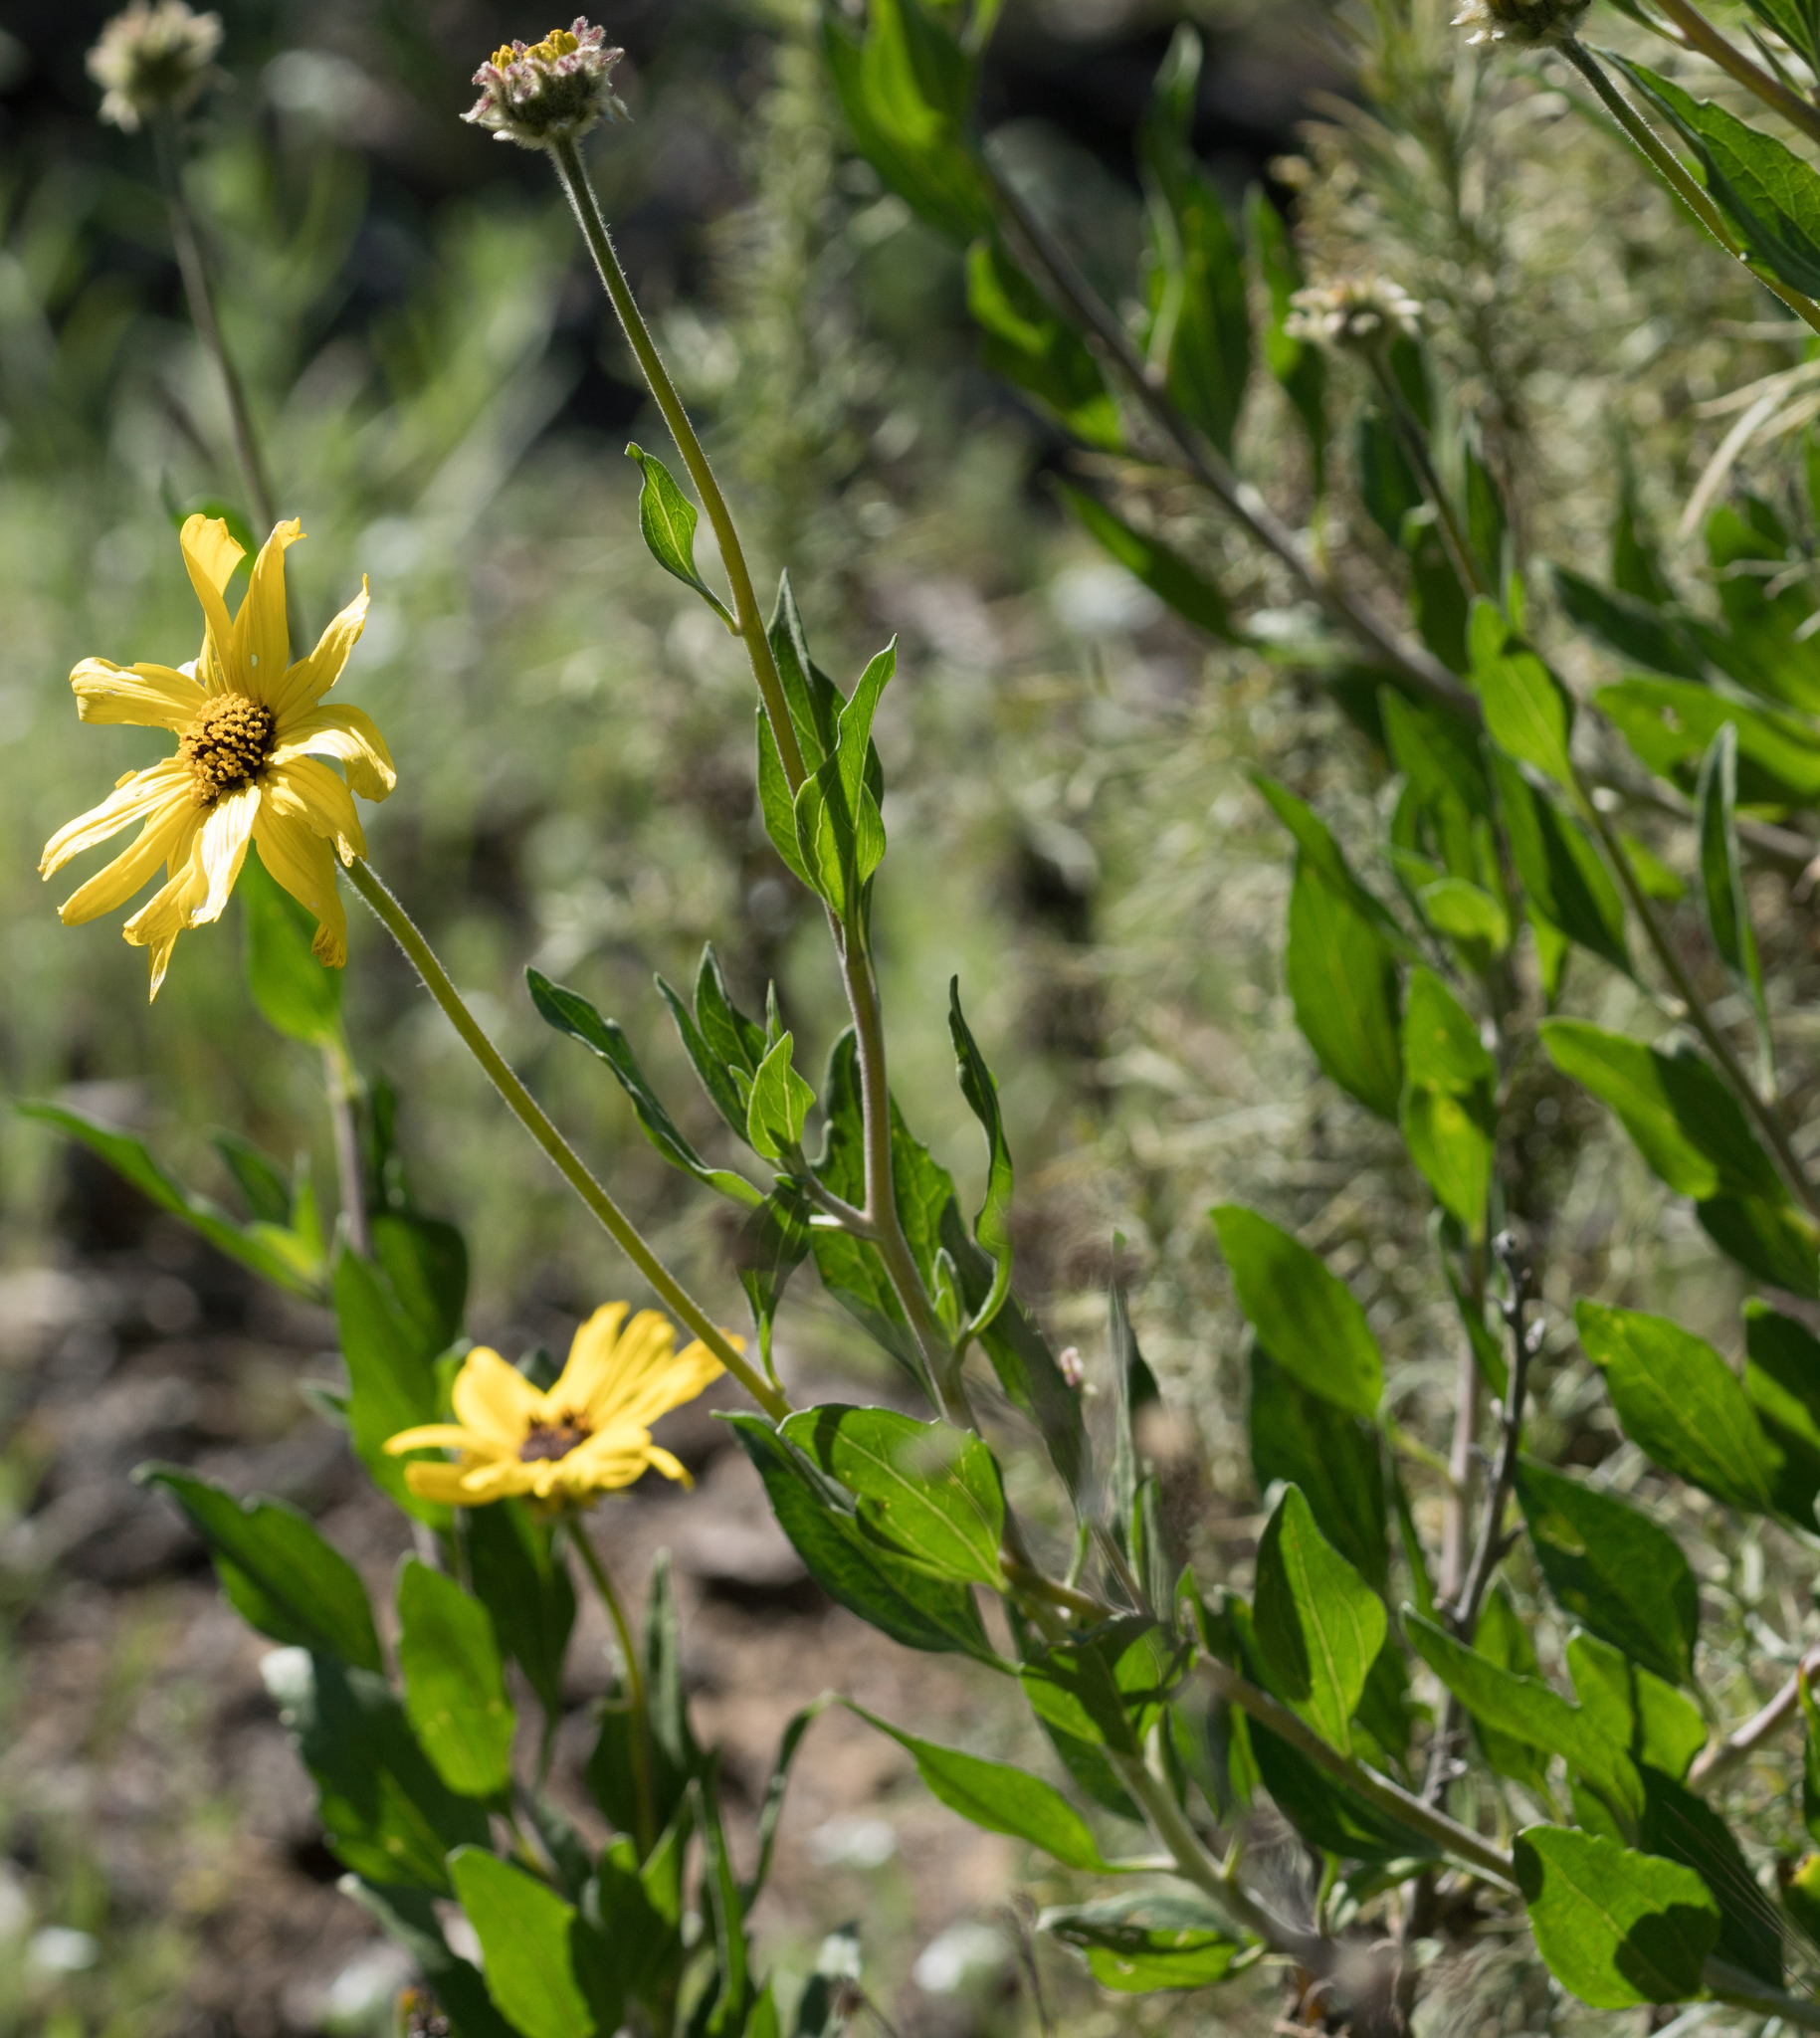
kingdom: Plantae
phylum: Tracheophyta
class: Magnoliopsida
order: Asterales
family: Asteraceae
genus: Encelia
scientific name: Encelia californica
